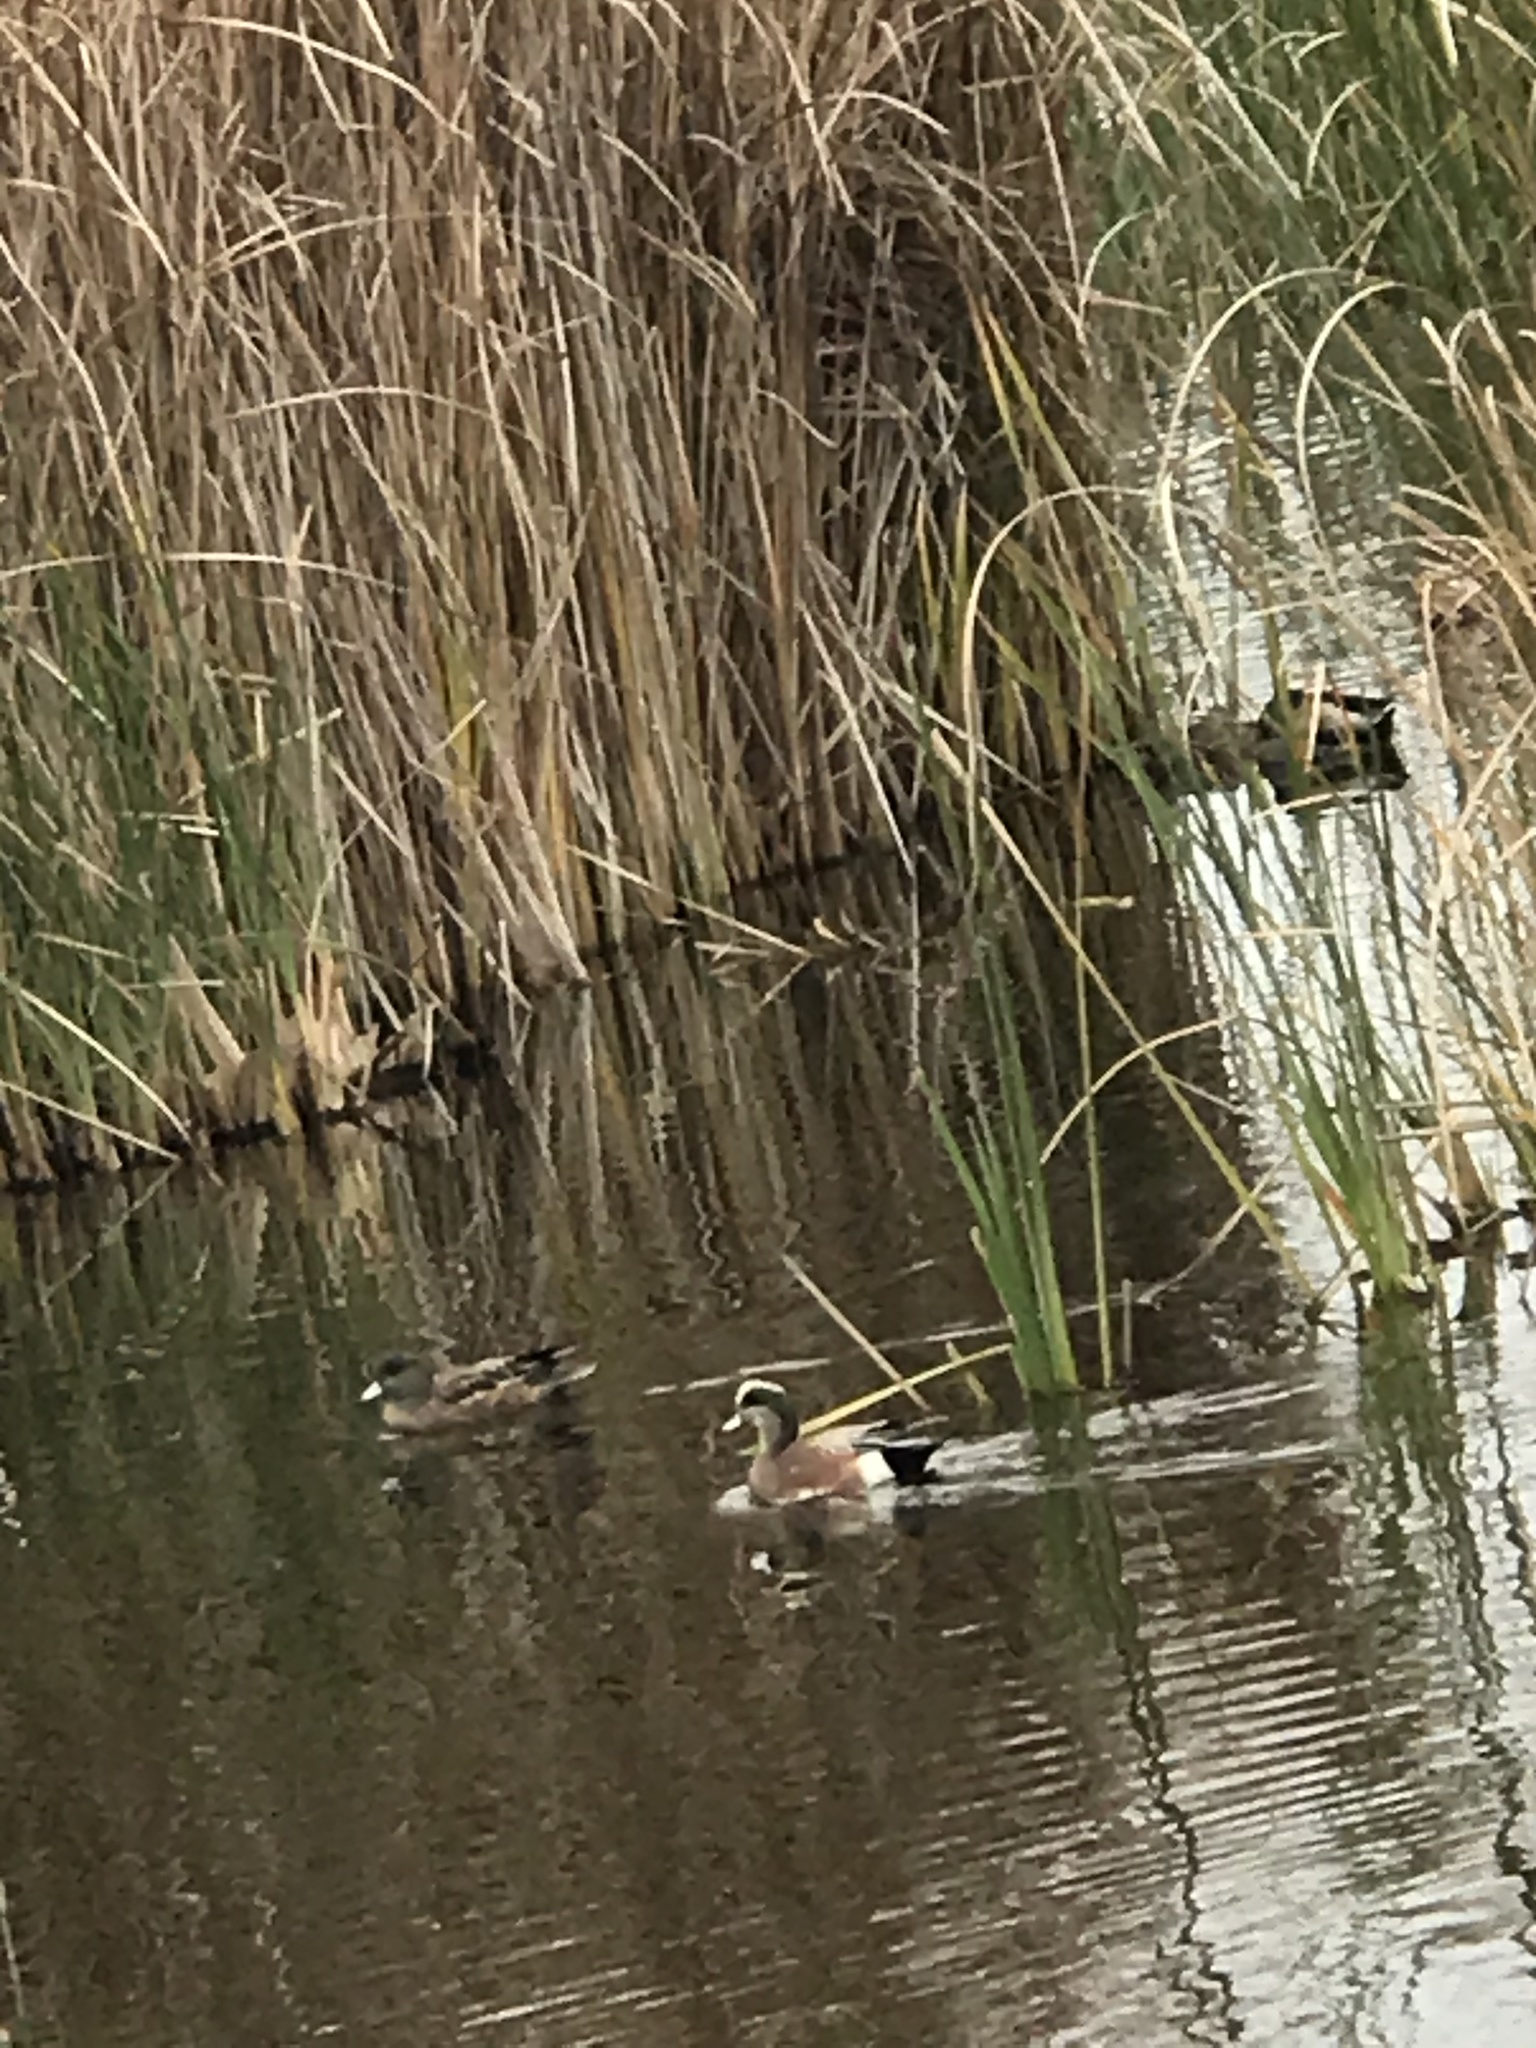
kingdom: Animalia
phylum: Chordata
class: Aves
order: Anseriformes
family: Anatidae
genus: Mareca
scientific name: Mareca americana
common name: American wigeon
